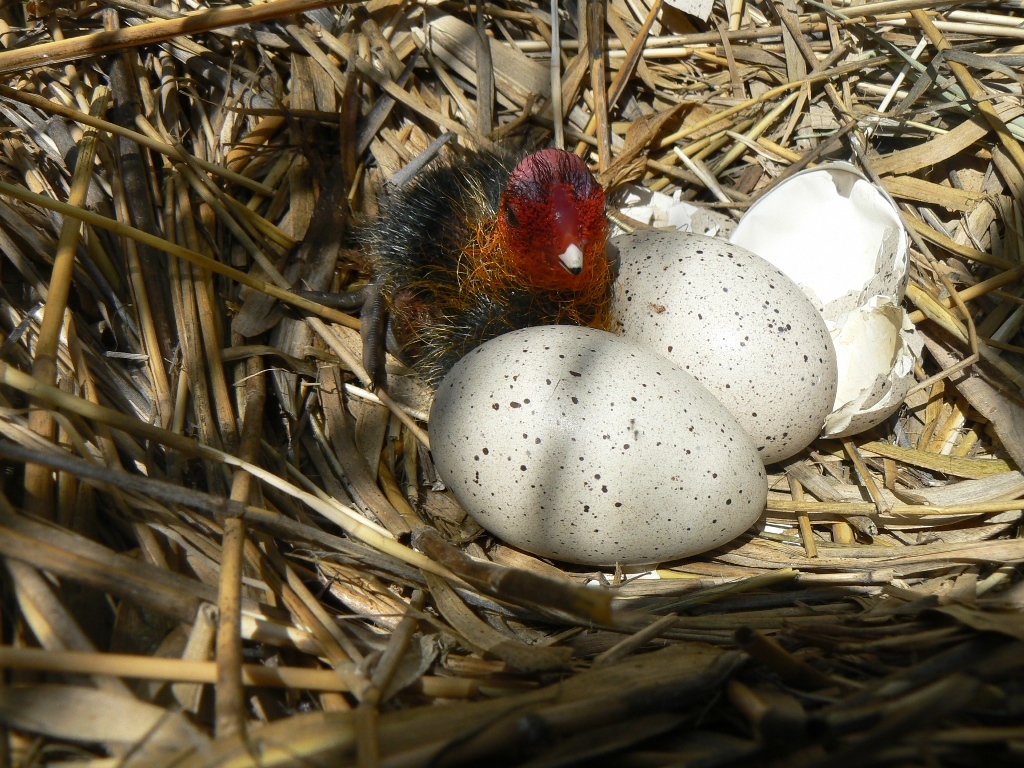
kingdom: Animalia
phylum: Chordata
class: Aves
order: Gruiformes
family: Rallidae
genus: Fulica
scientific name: Fulica atra
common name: Eurasian coot
